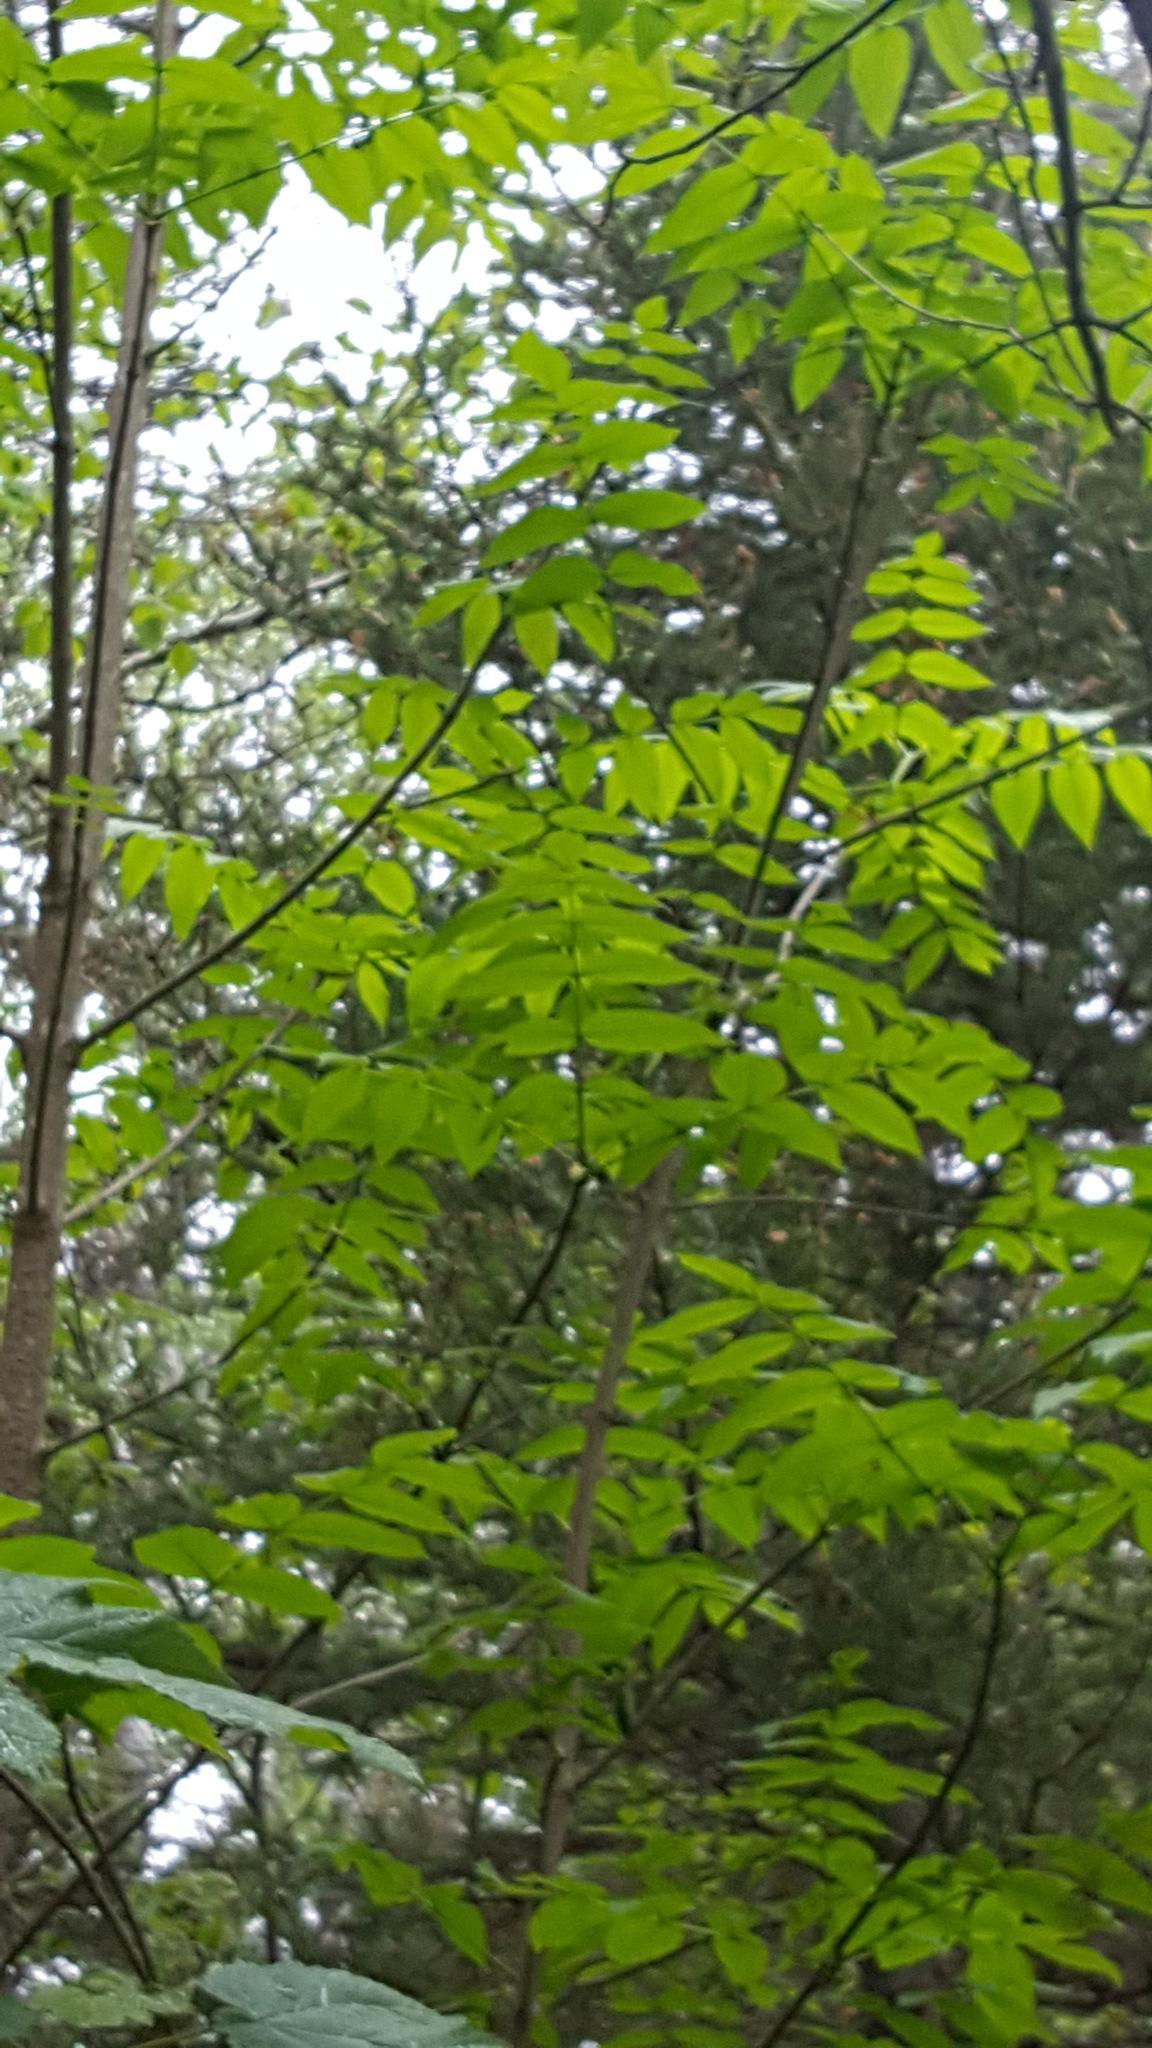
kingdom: Plantae
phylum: Tracheophyta
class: Magnoliopsida
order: Lamiales
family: Oleaceae
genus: Fraxinus
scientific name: Fraxinus nigra
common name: Black ash
